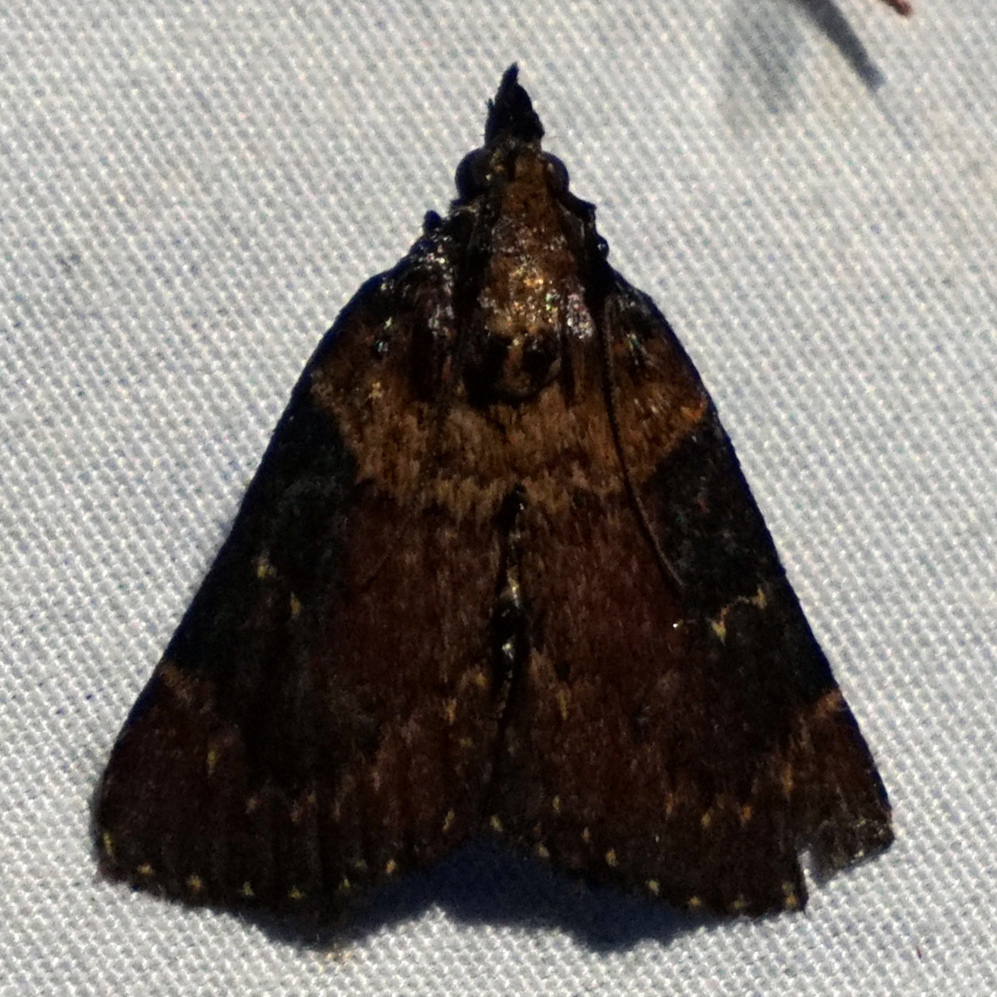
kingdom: Animalia
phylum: Arthropoda
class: Insecta
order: Lepidoptera
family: Pyralidae
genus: Omphalocera
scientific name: Omphalocera munroei
